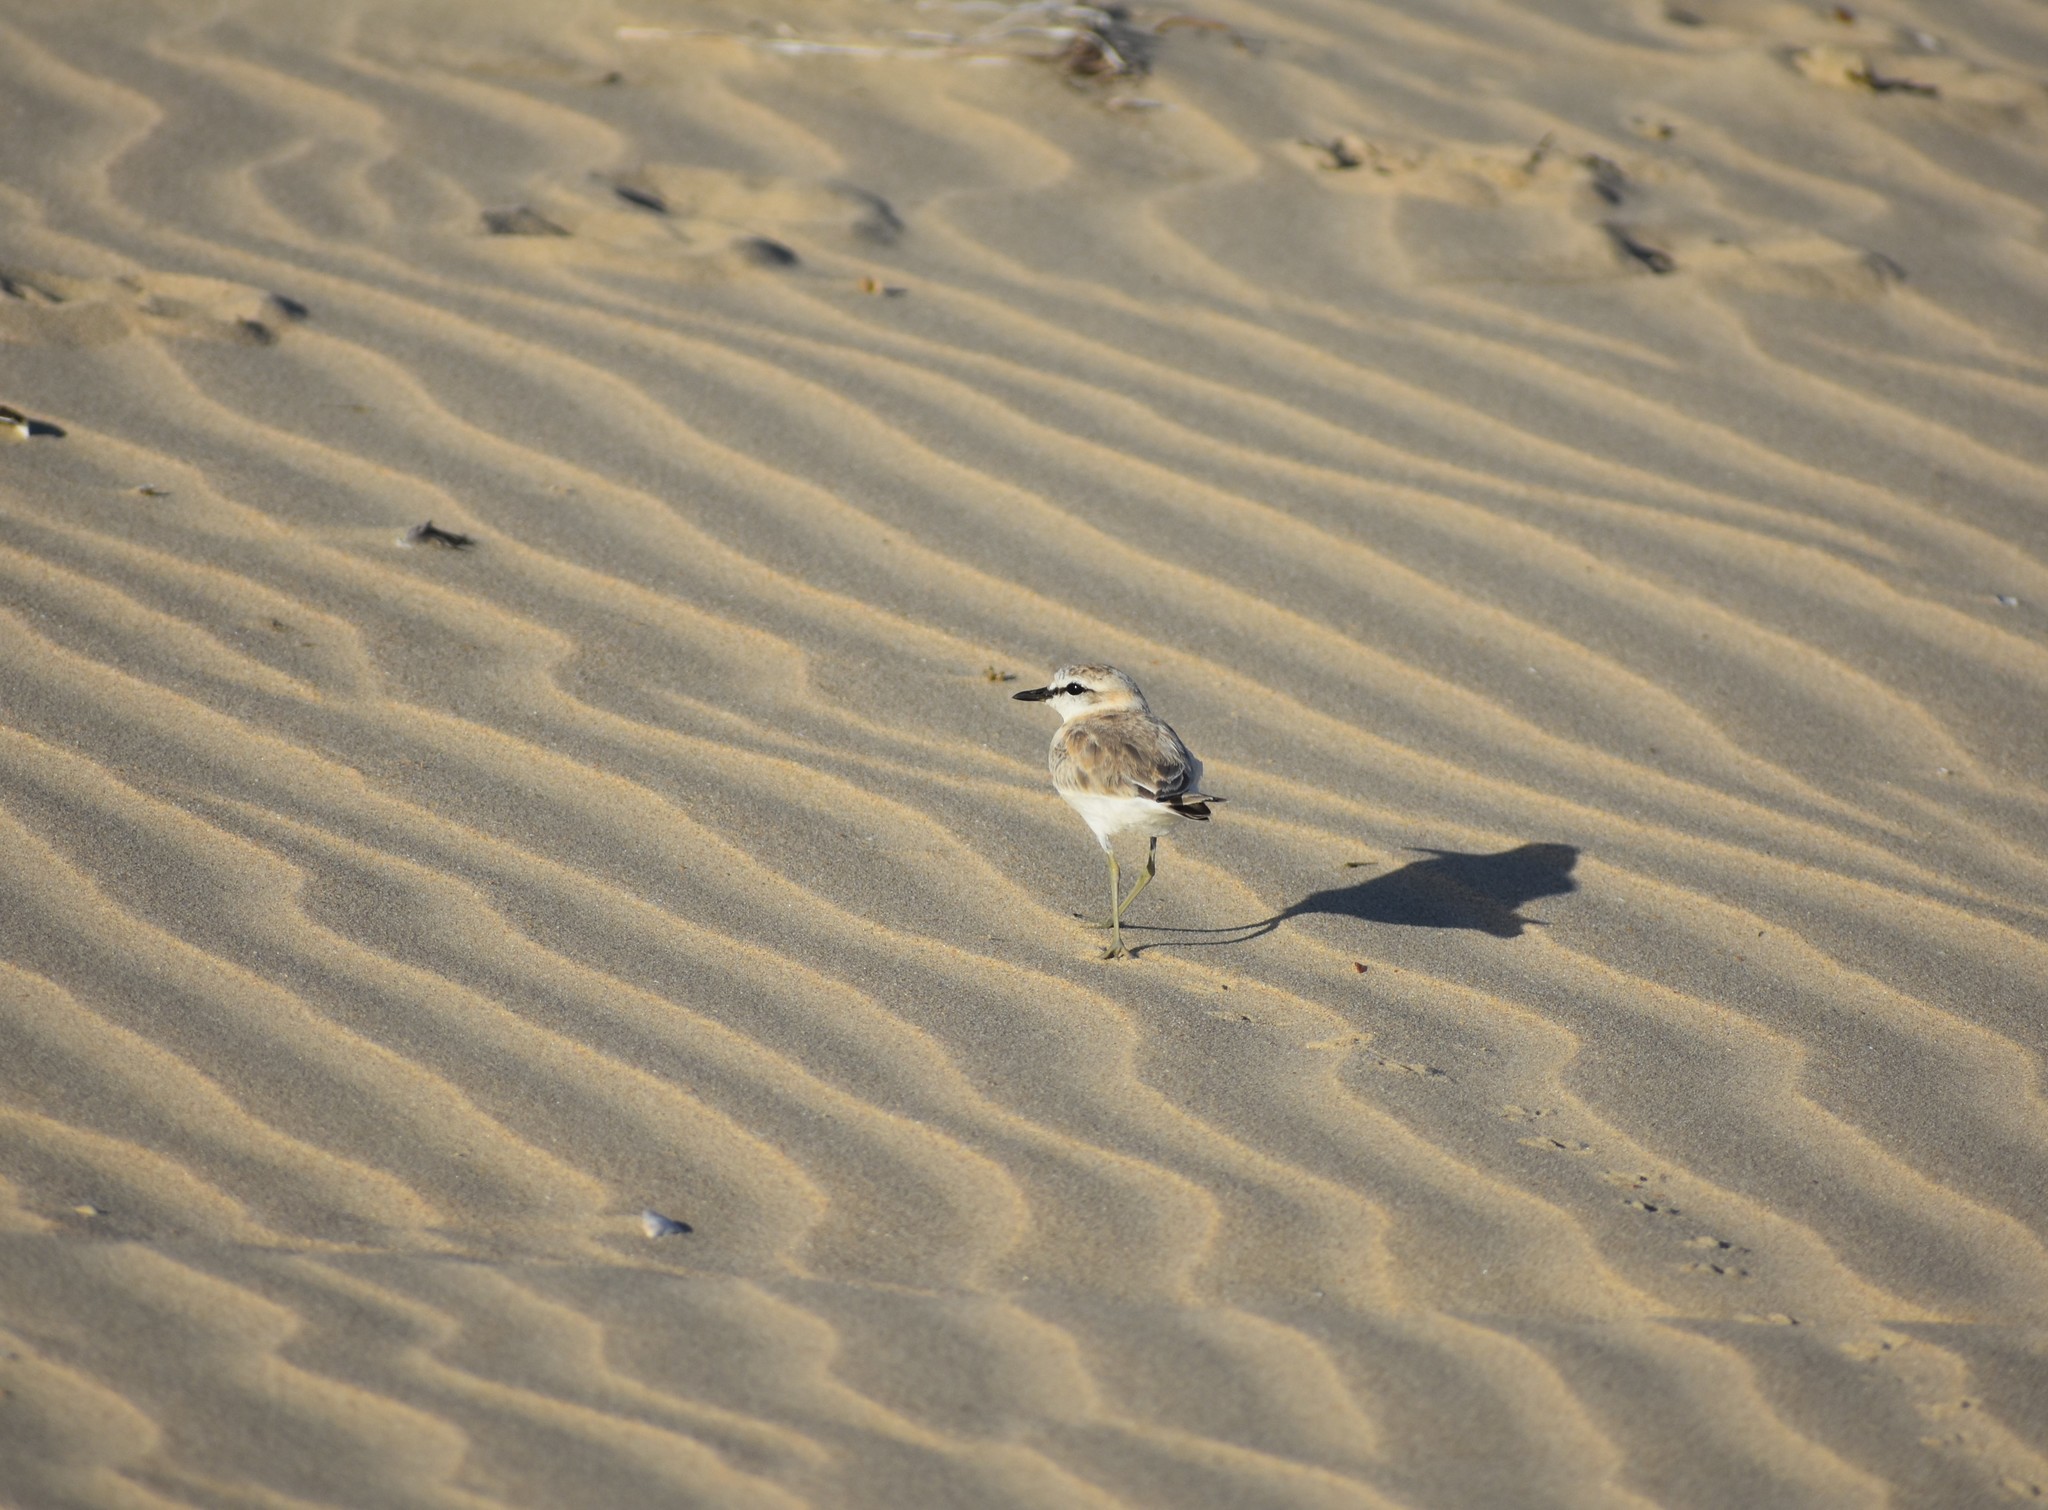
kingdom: Animalia
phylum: Chordata
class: Aves
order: Charadriiformes
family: Charadriidae
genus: Anarhynchus
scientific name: Anarhynchus
